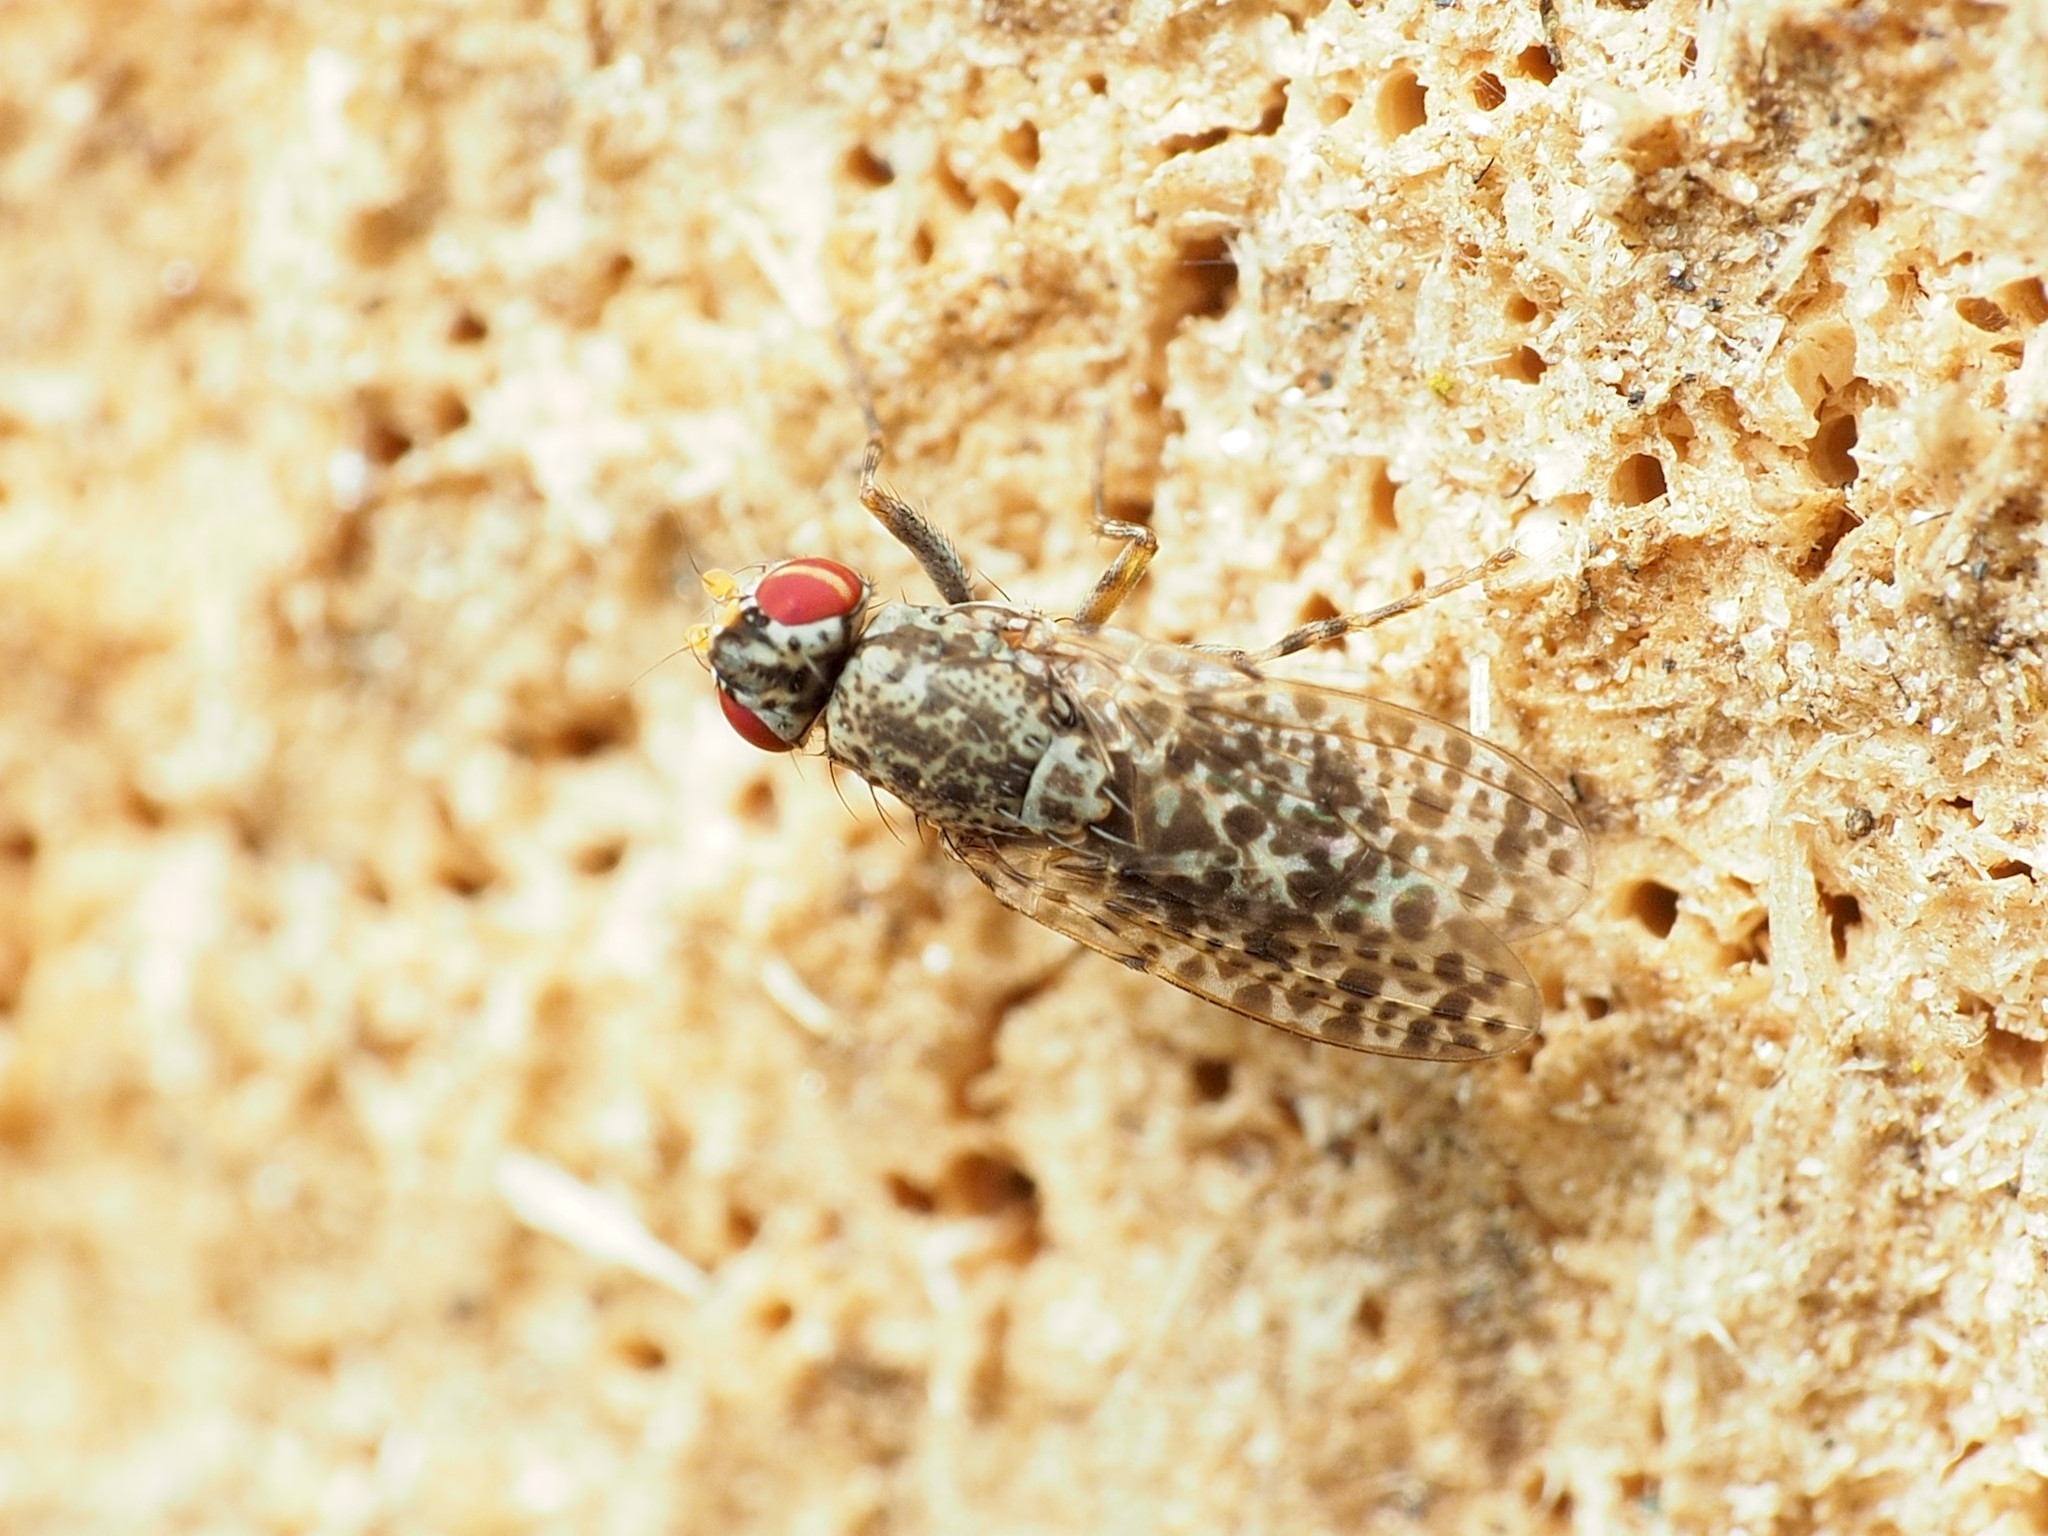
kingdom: Animalia
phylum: Arthropoda
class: Insecta
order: Diptera
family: Odiniidae
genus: Traginops
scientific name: Traginops irroratus
